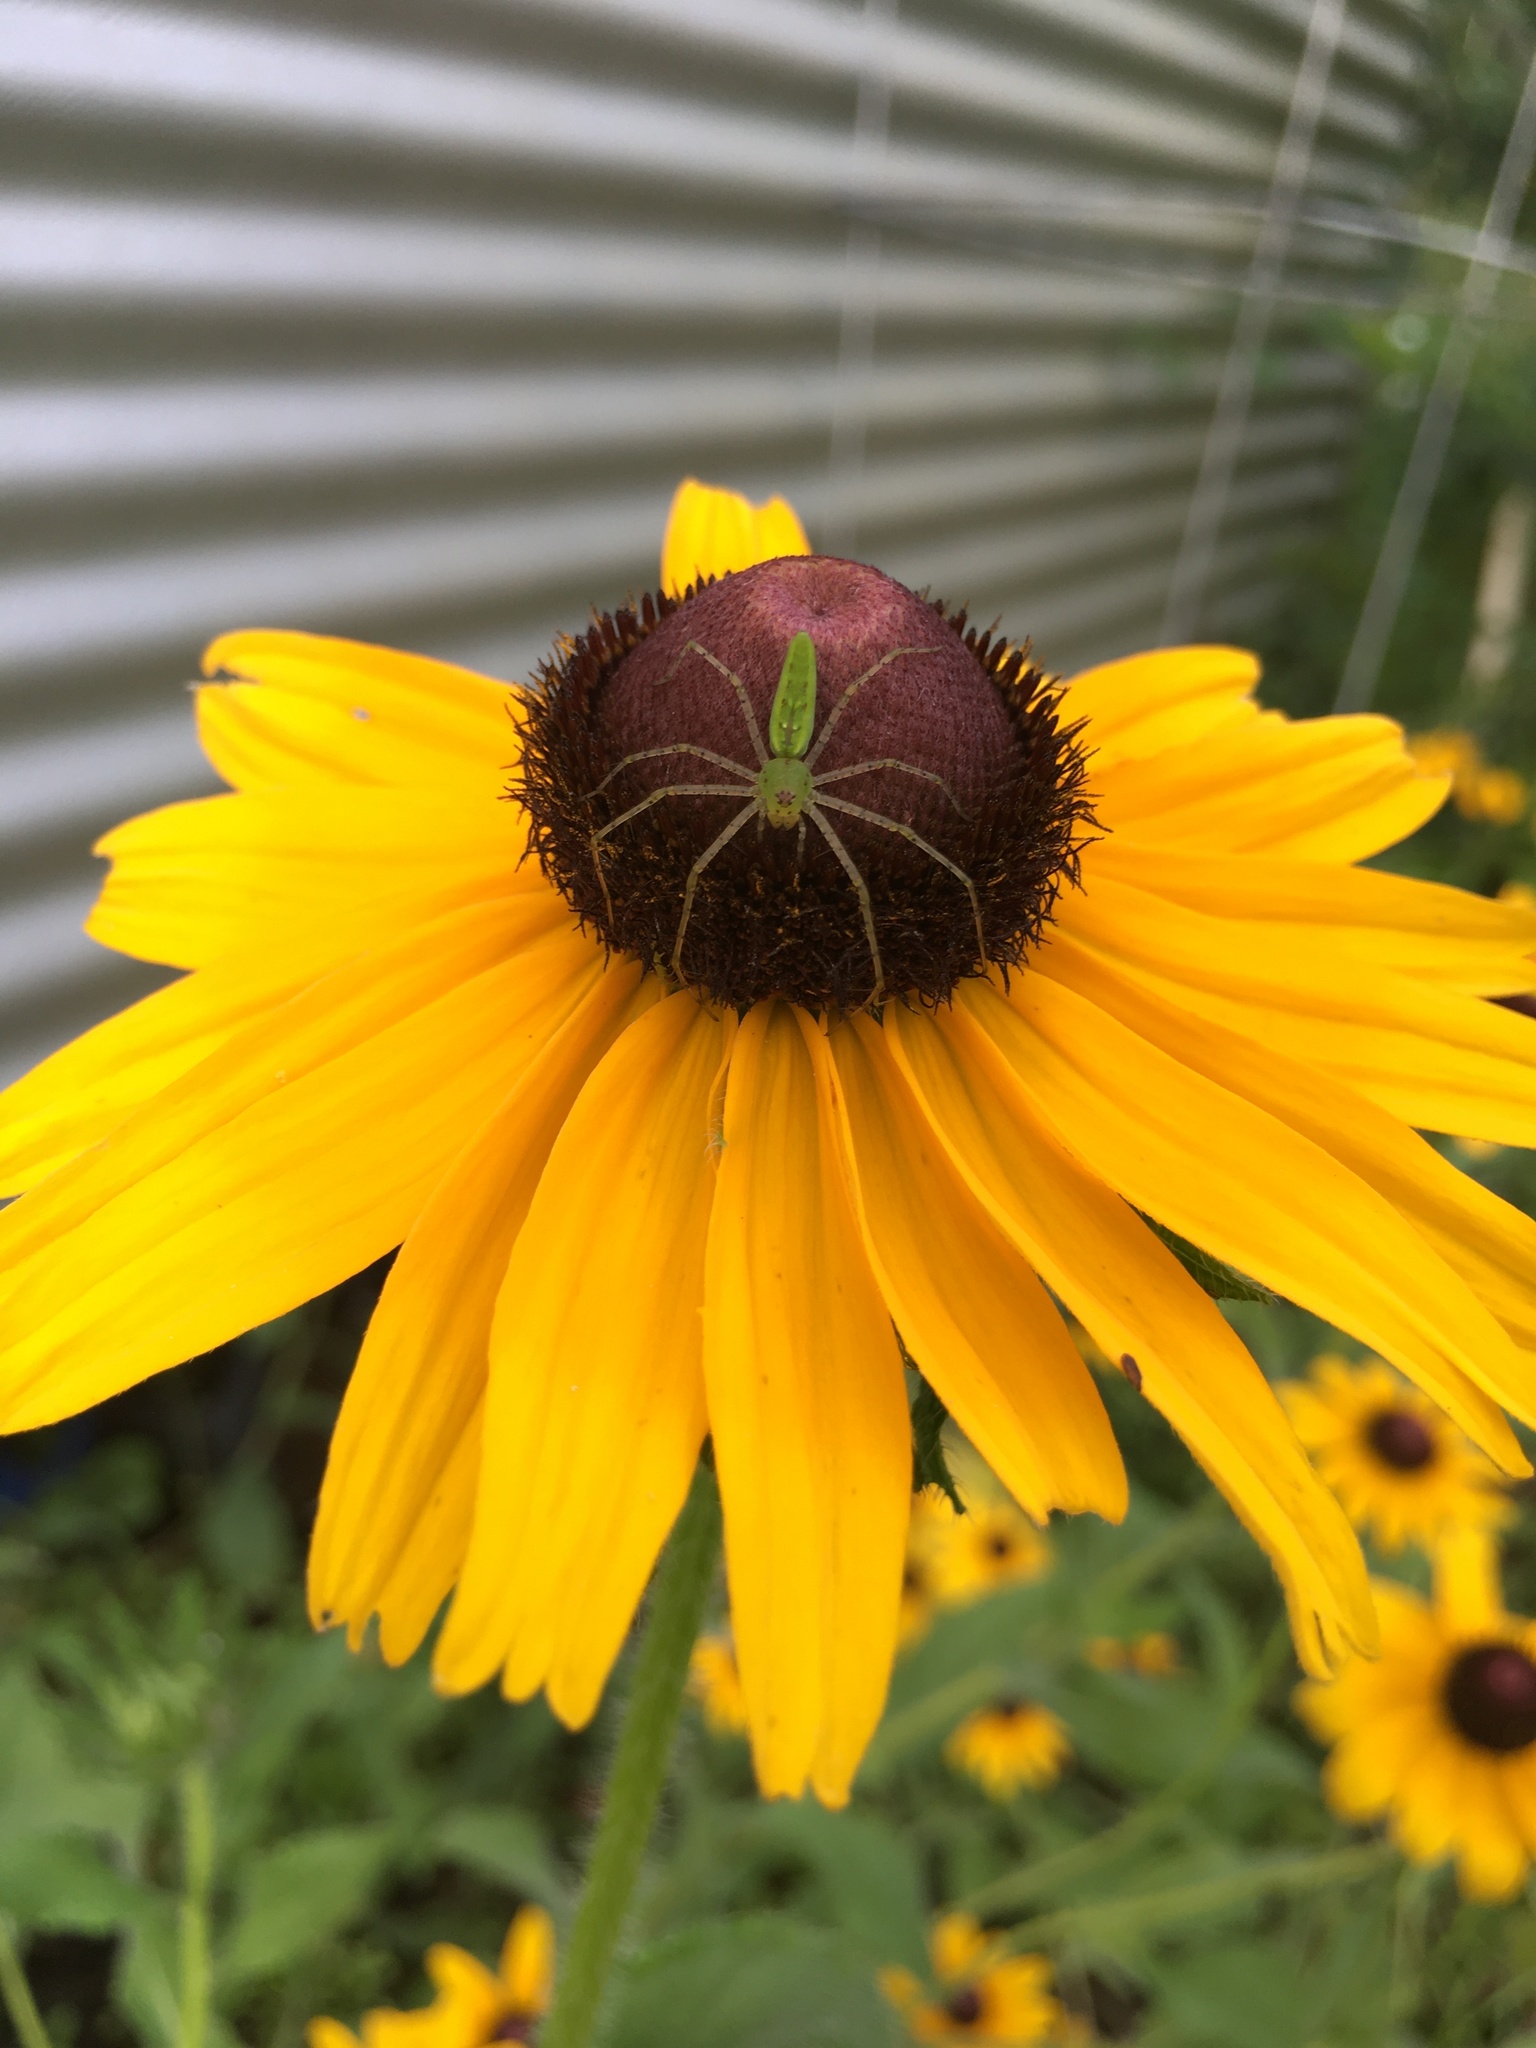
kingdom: Animalia
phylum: Arthropoda
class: Arachnida
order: Araneae
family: Oxyopidae
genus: Peucetia
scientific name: Peucetia viridans
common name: Lynx spiders
